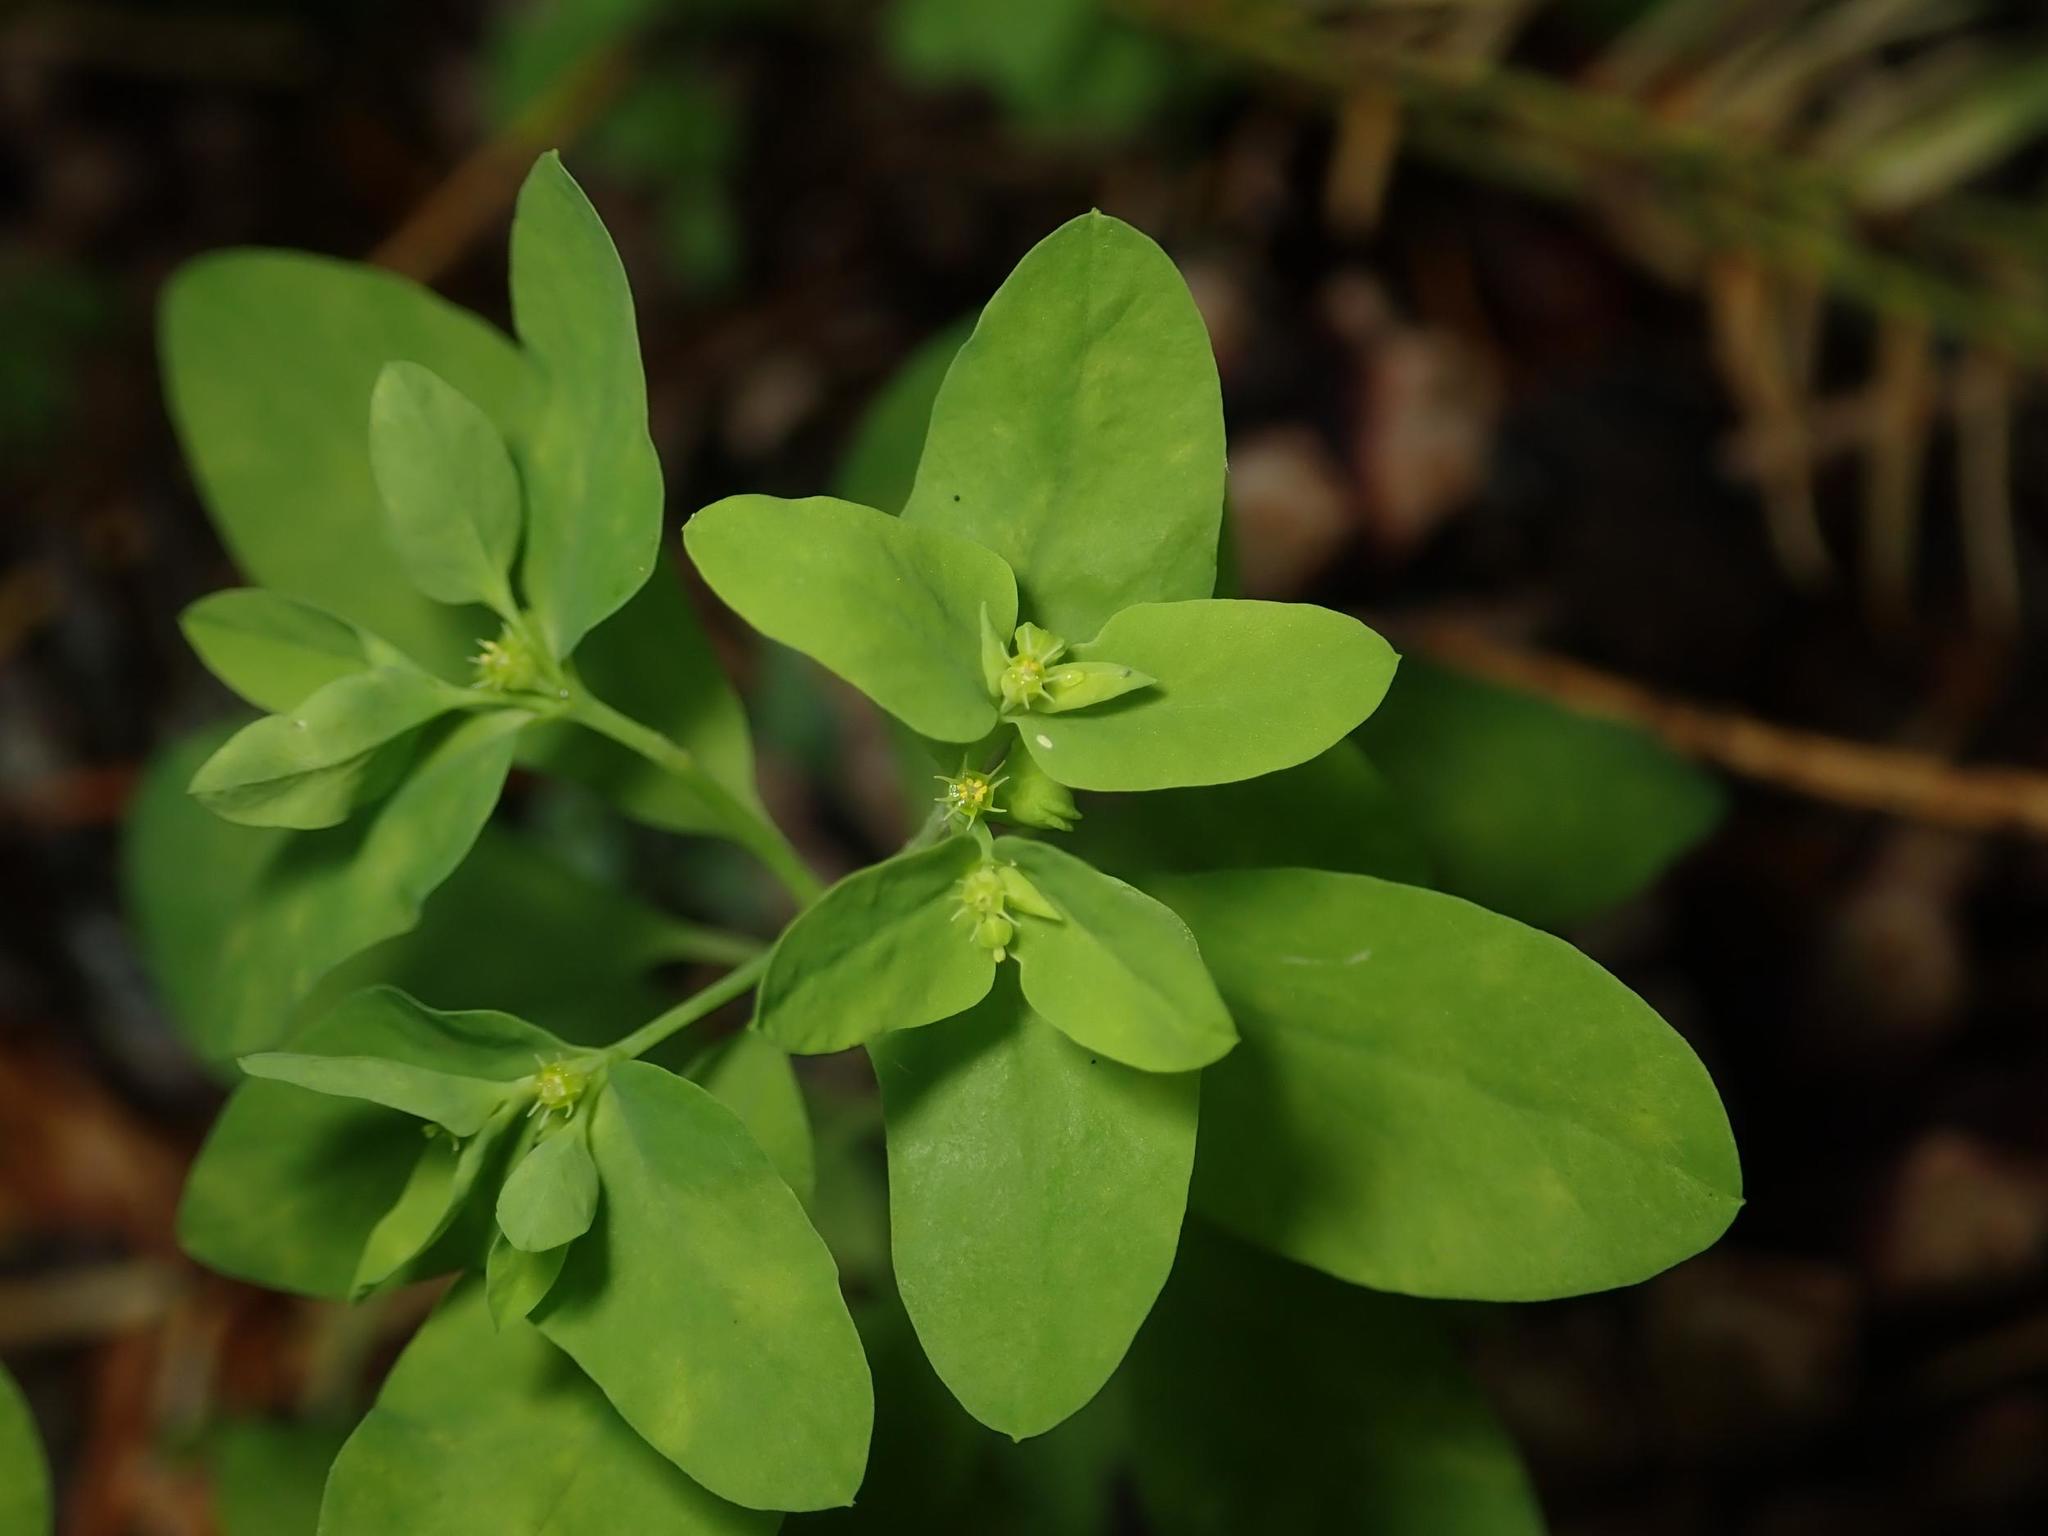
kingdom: Plantae
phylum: Tracheophyta
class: Magnoliopsida
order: Malpighiales
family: Euphorbiaceae
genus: Euphorbia
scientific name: Euphorbia peplus
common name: Petty spurge
